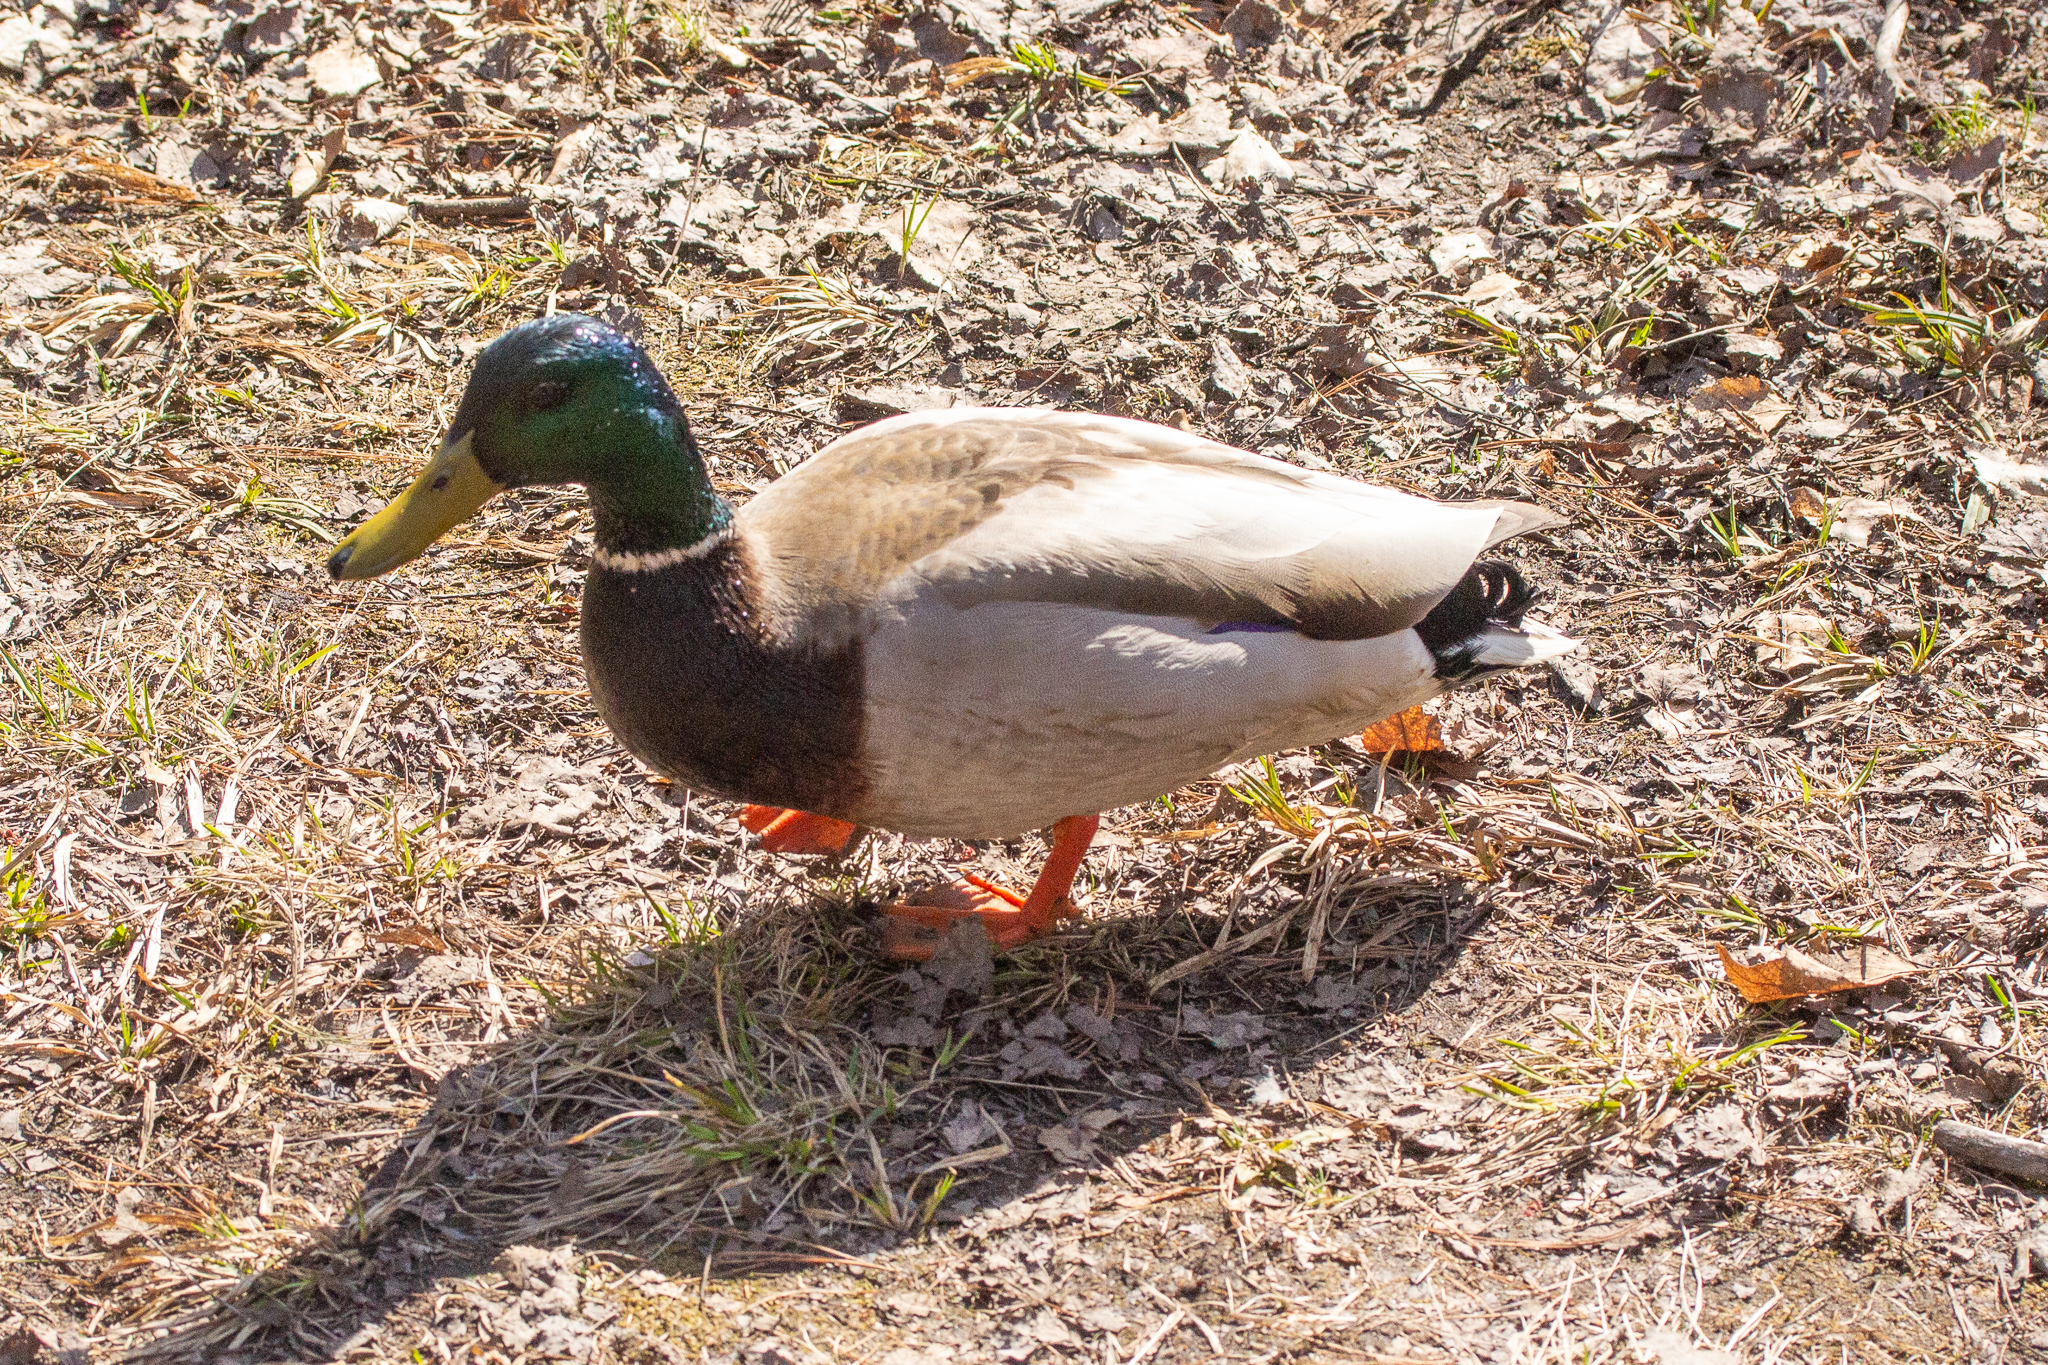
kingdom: Animalia
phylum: Chordata
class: Aves
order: Anseriformes
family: Anatidae
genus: Anas
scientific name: Anas platyrhynchos
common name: Mallard
